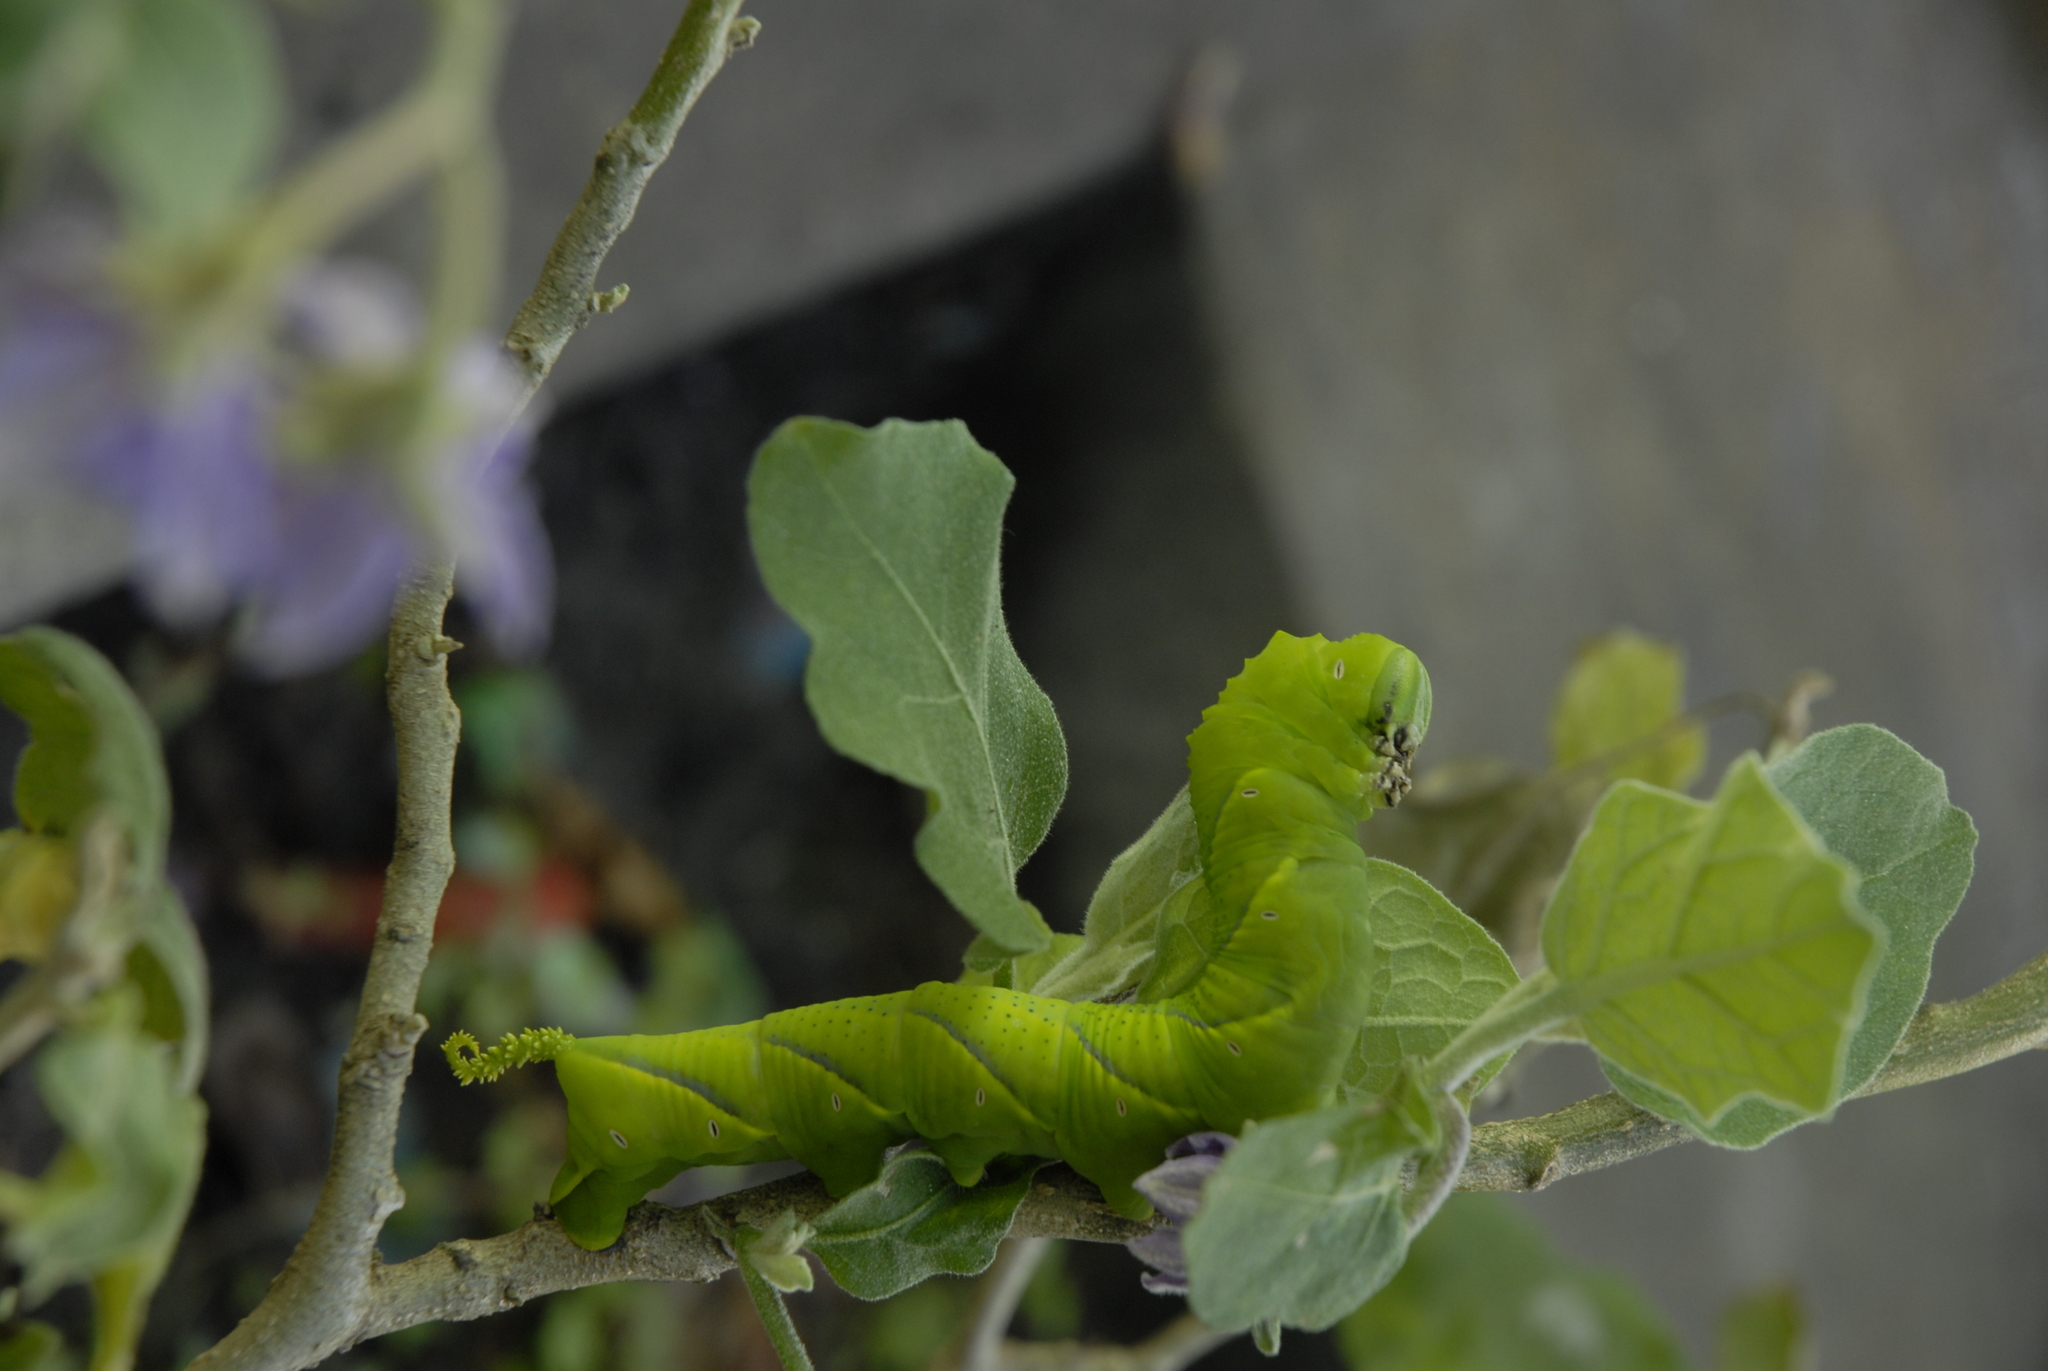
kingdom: Animalia
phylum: Arthropoda
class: Insecta
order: Lepidoptera
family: Sphingidae
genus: Acherontia
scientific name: Acherontia lachesis
